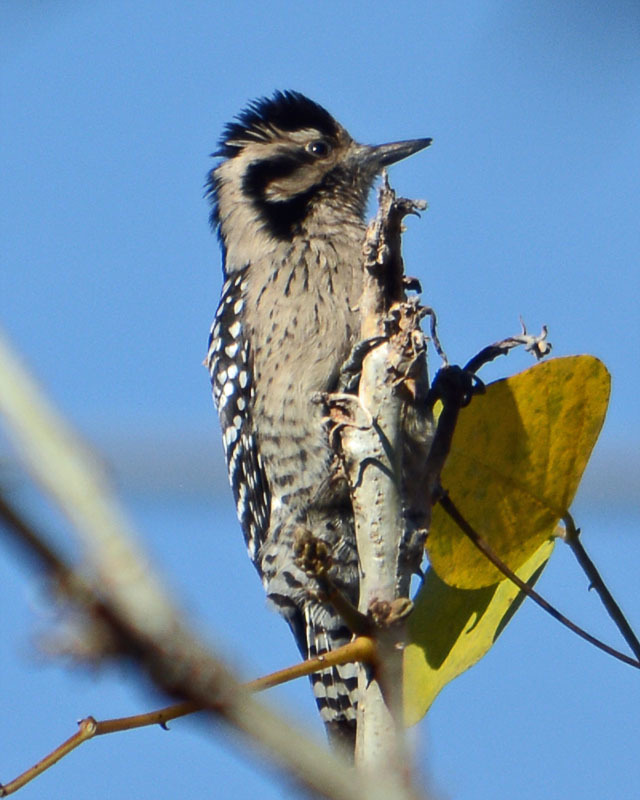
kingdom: Animalia
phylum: Chordata
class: Aves
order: Piciformes
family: Picidae
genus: Dryobates
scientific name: Dryobates scalaris
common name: Ladder-backed woodpecker
